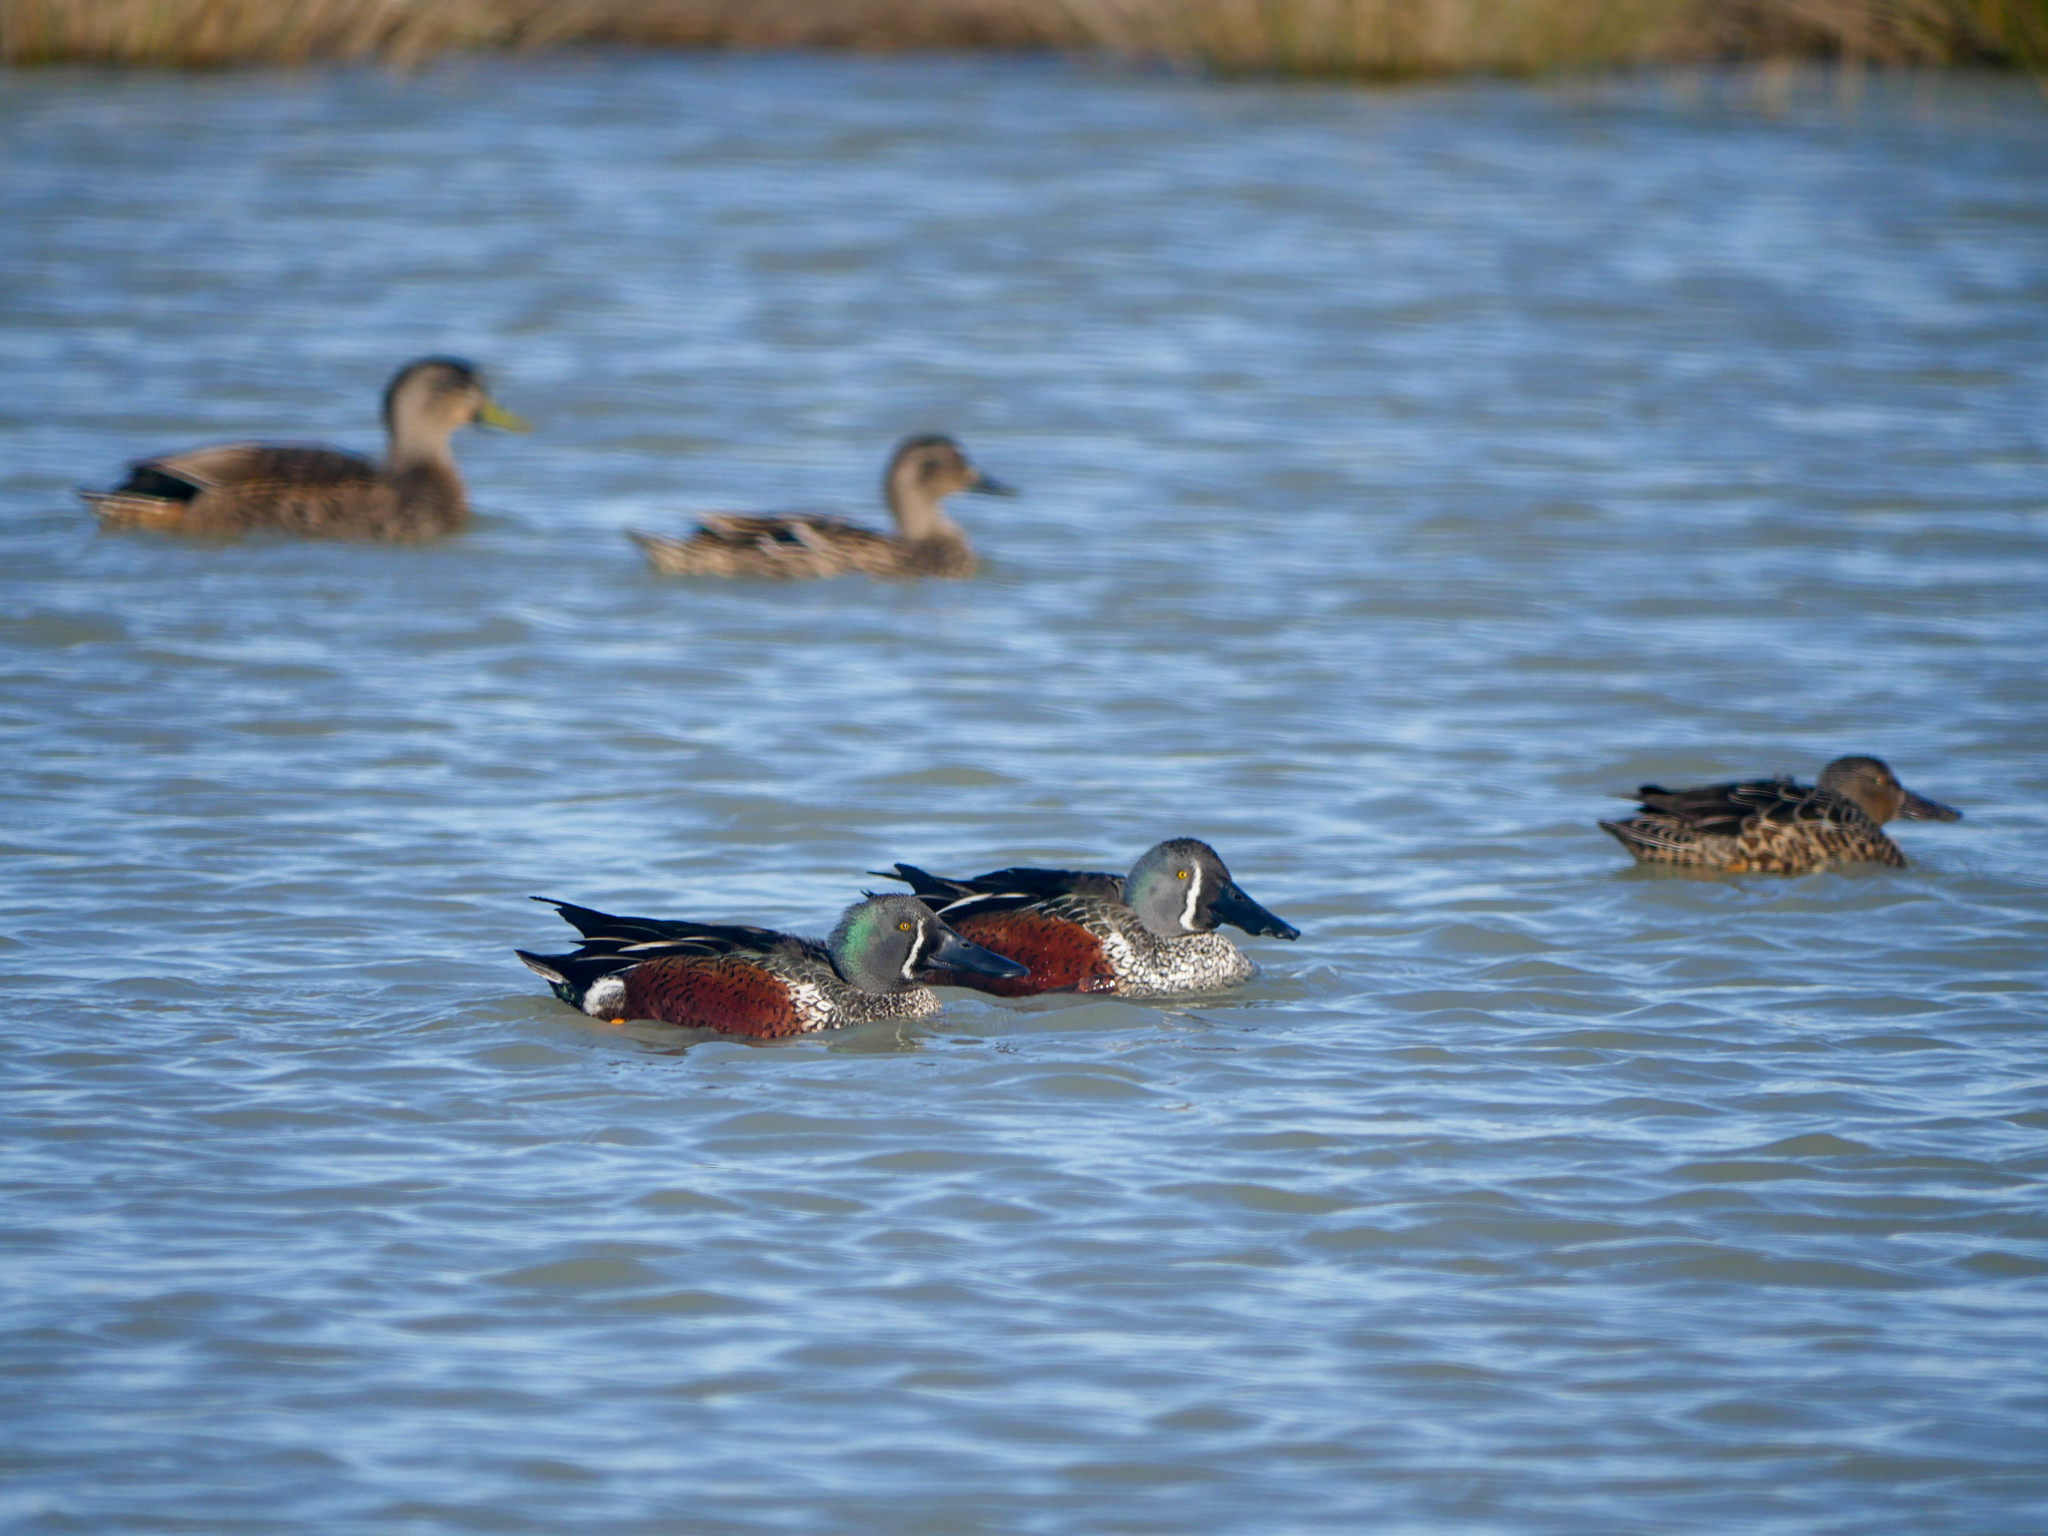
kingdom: Animalia
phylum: Chordata
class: Aves
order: Anseriformes
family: Anatidae
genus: Spatula
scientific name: Spatula rhynchotis
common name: Australian shoveler
